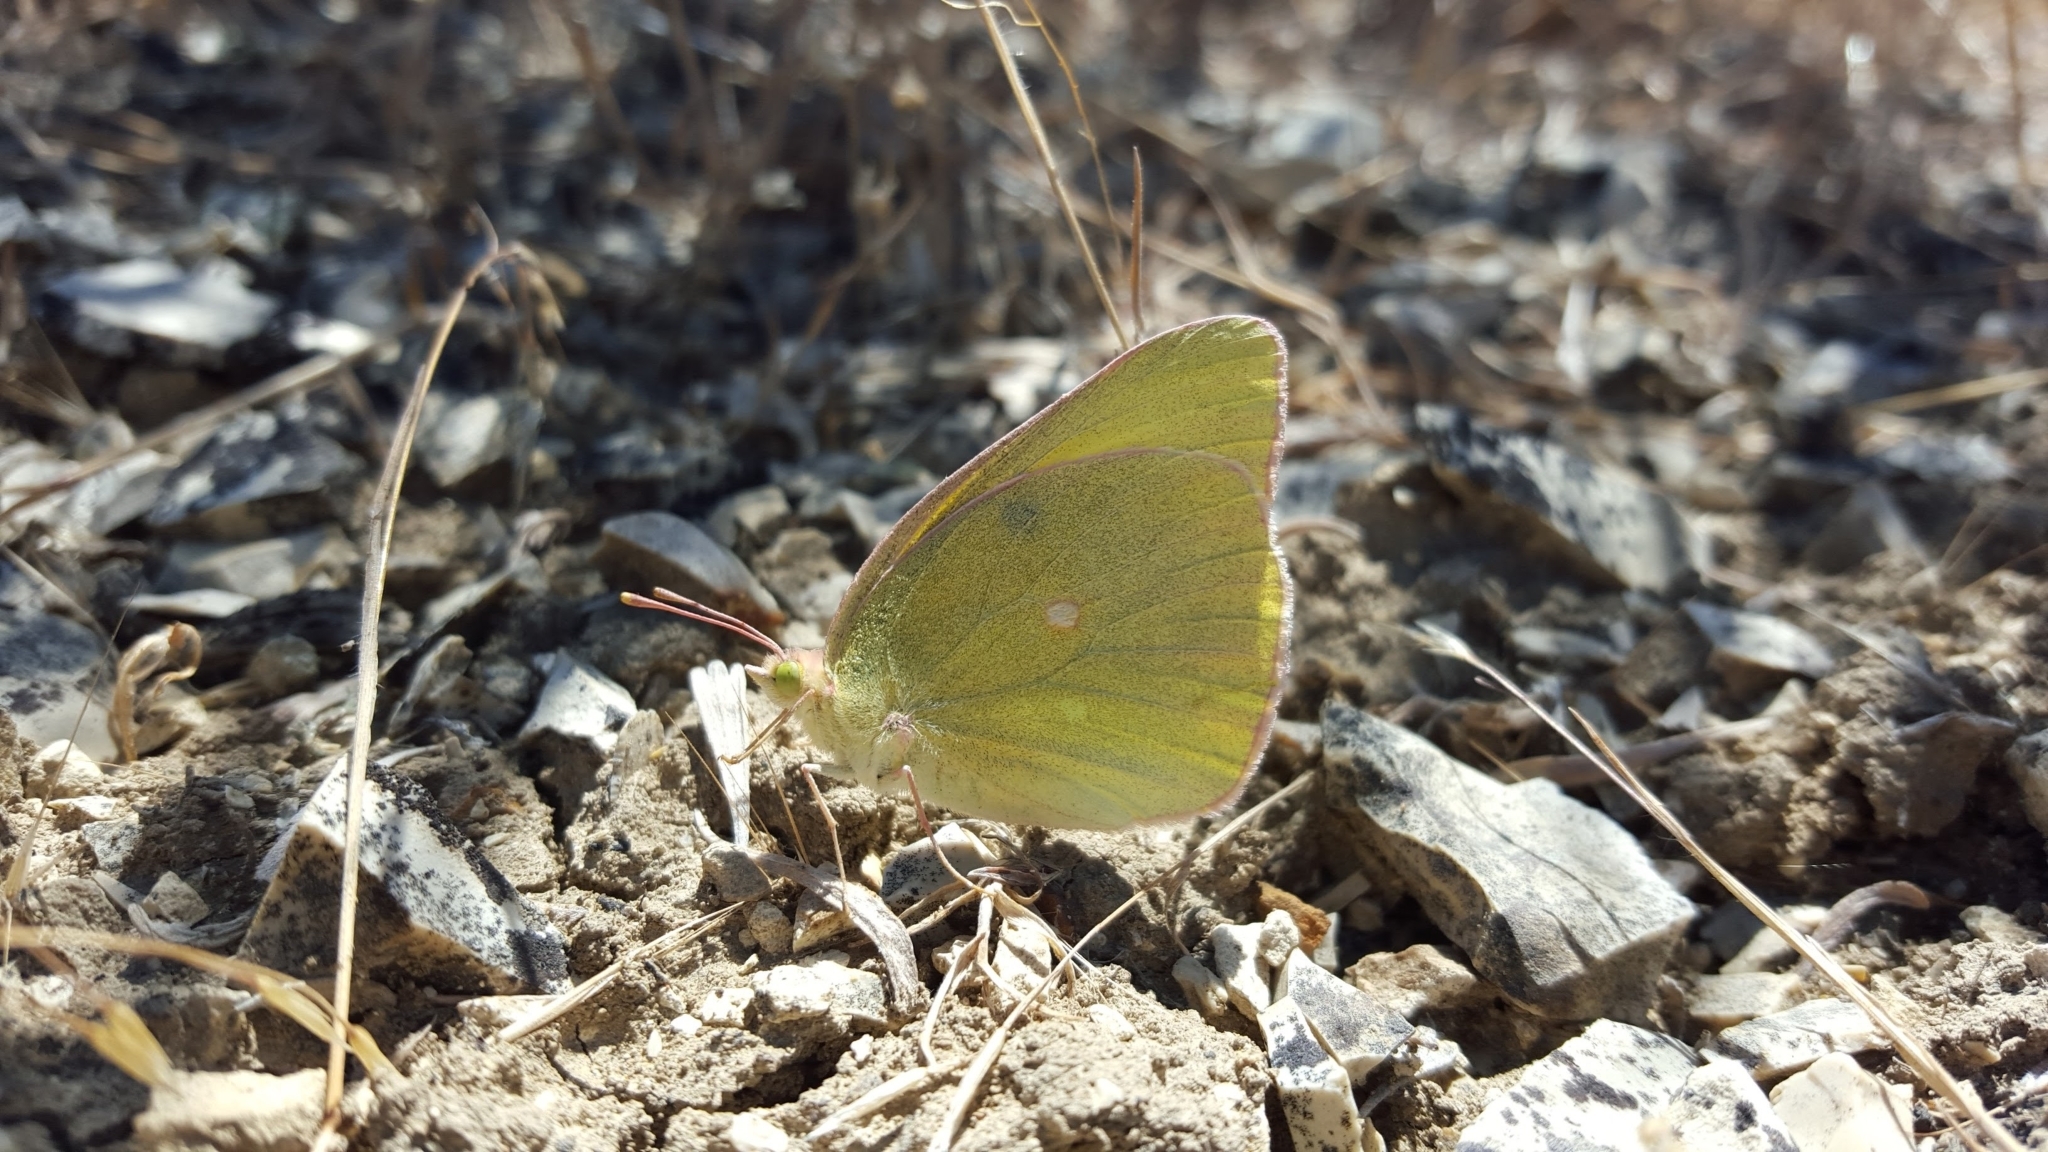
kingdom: Animalia
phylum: Arthropoda
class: Insecta
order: Lepidoptera
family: Pieridae
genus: Colias
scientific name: Colias alexandra
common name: Alexandra sulphur
